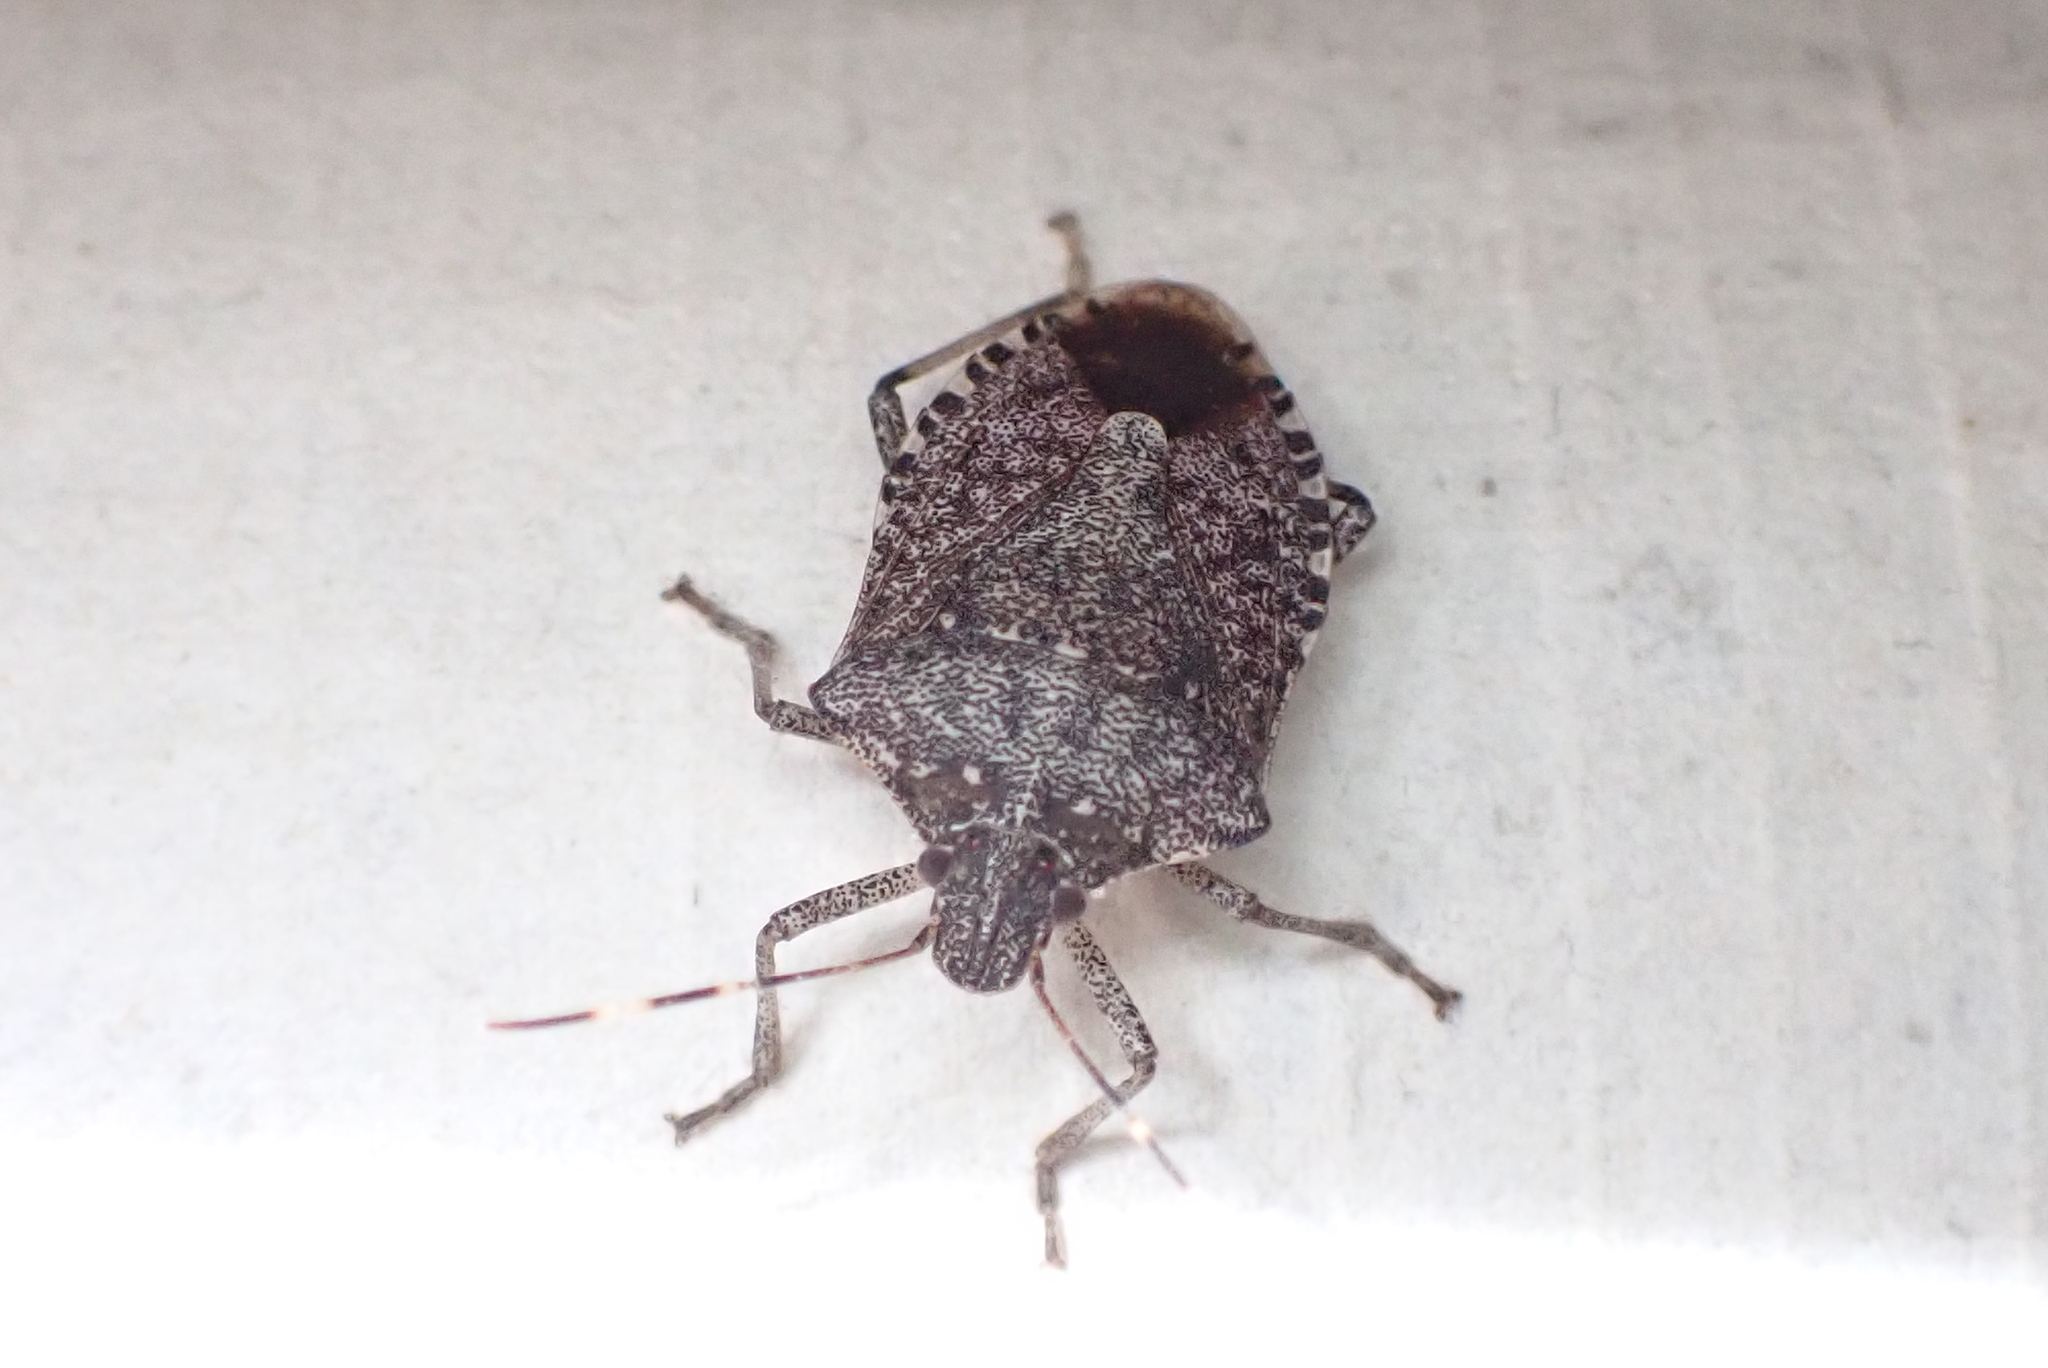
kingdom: Animalia
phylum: Arthropoda
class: Insecta
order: Hemiptera
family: Pentatomidae
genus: Halyomorpha
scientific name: Halyomorpha halys
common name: Brown marmorated stink bug
